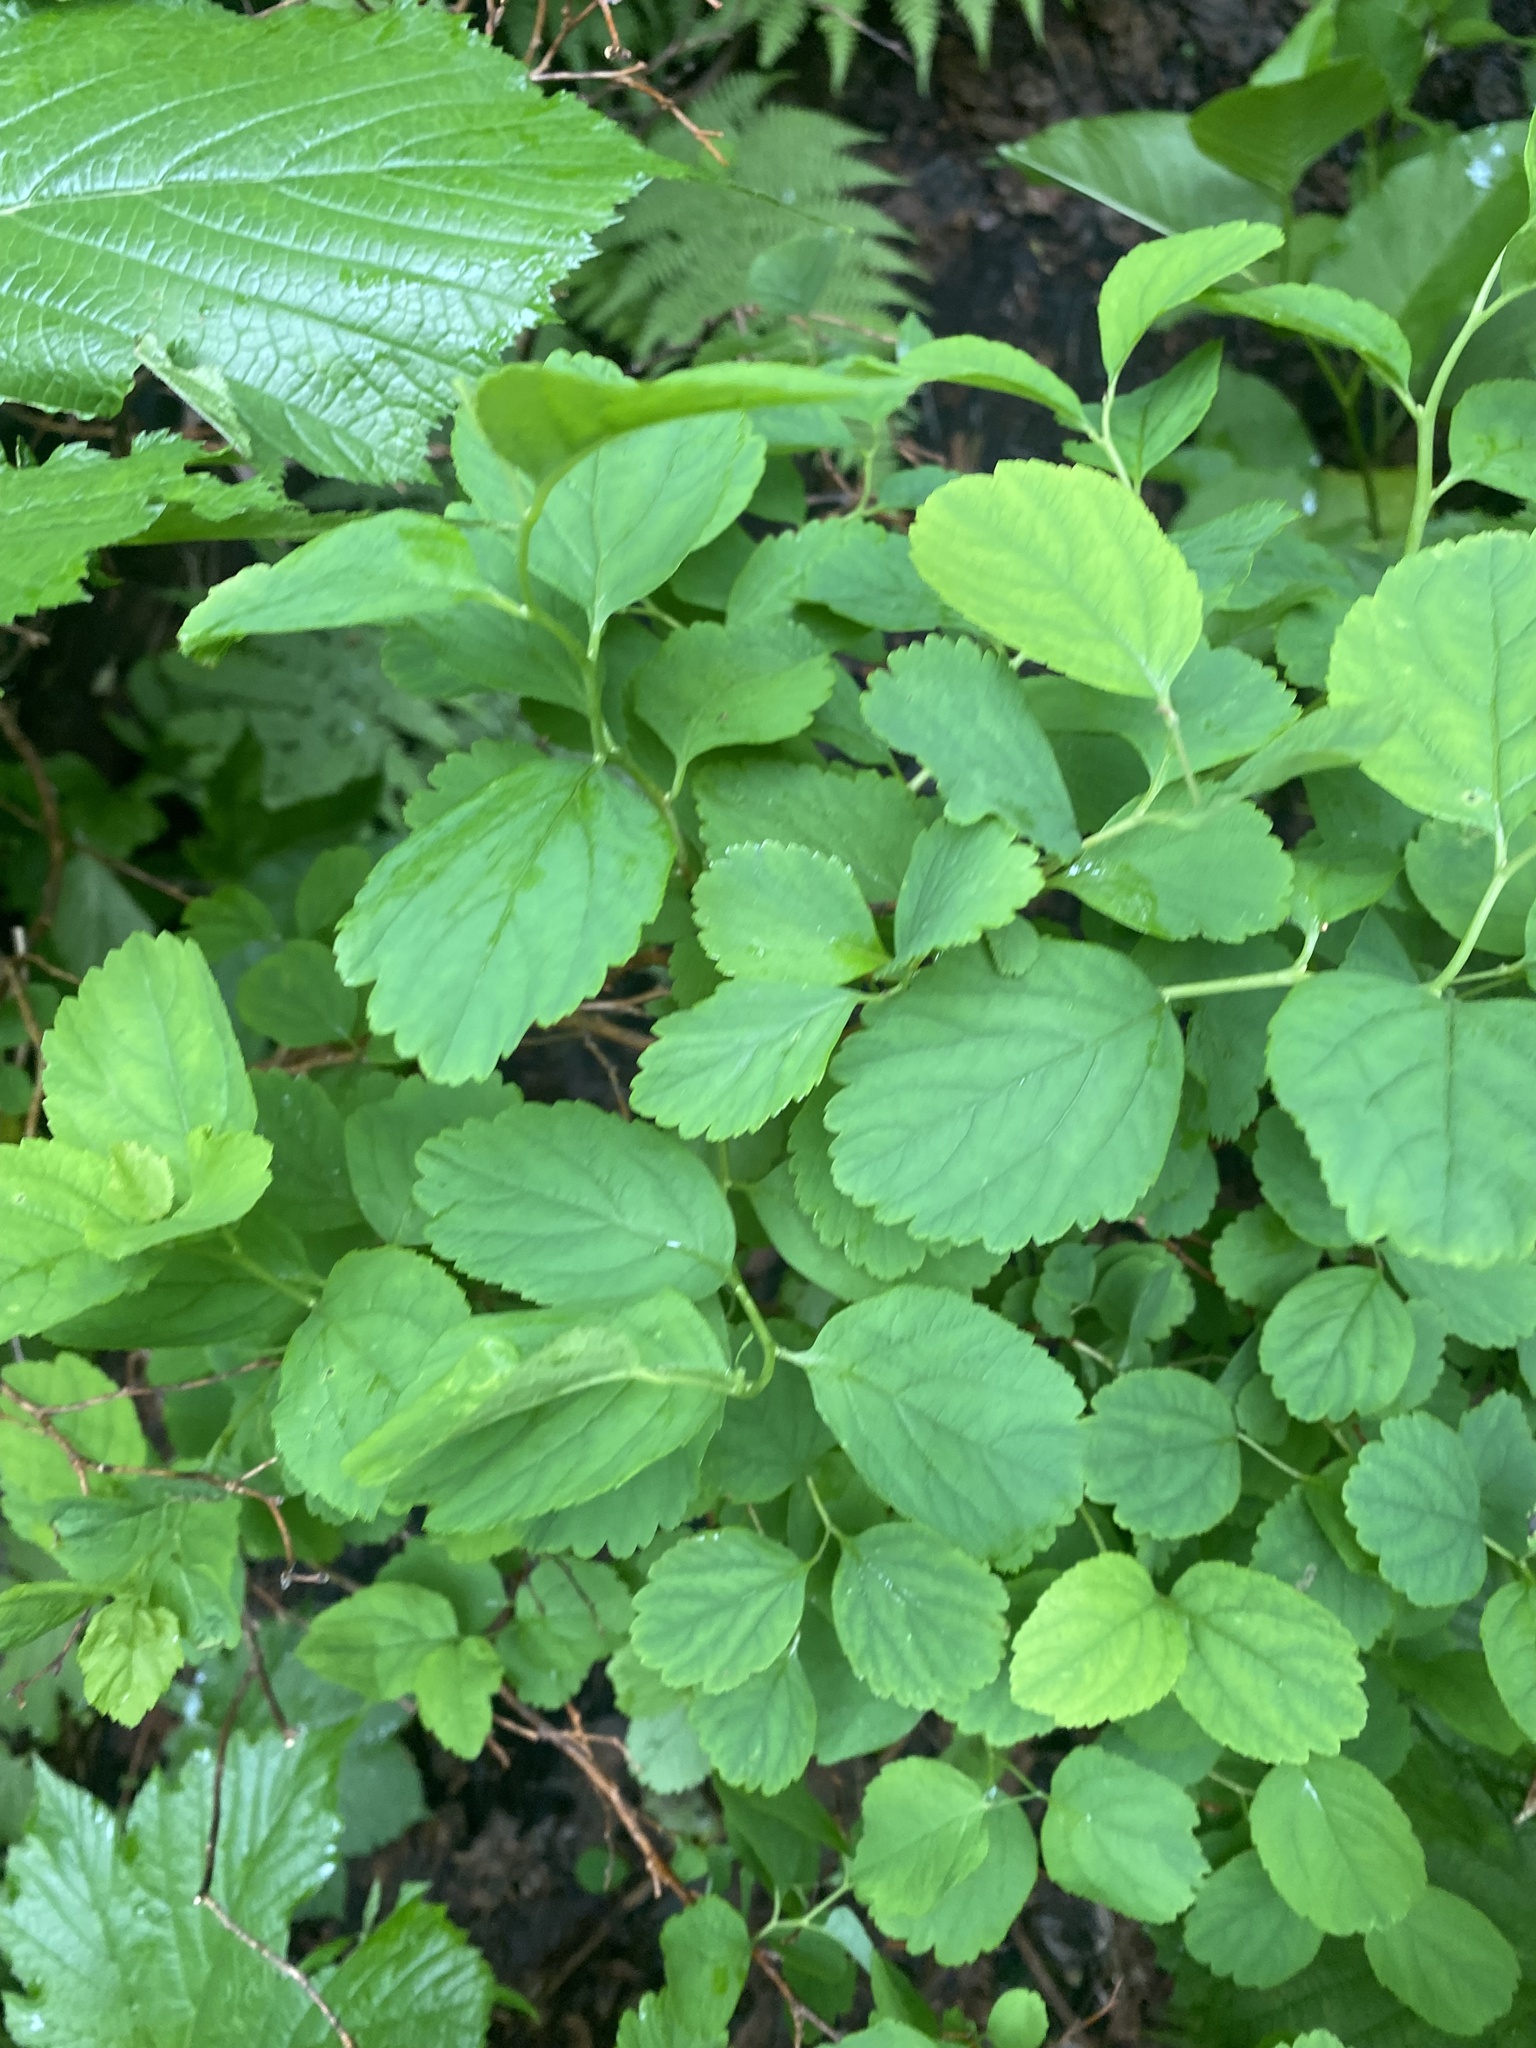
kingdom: Plantae
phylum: Tracheophyta
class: Magnoliopsida
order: Rosales
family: Rosaceae
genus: Spiraea
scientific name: Spiraea betulifolia
